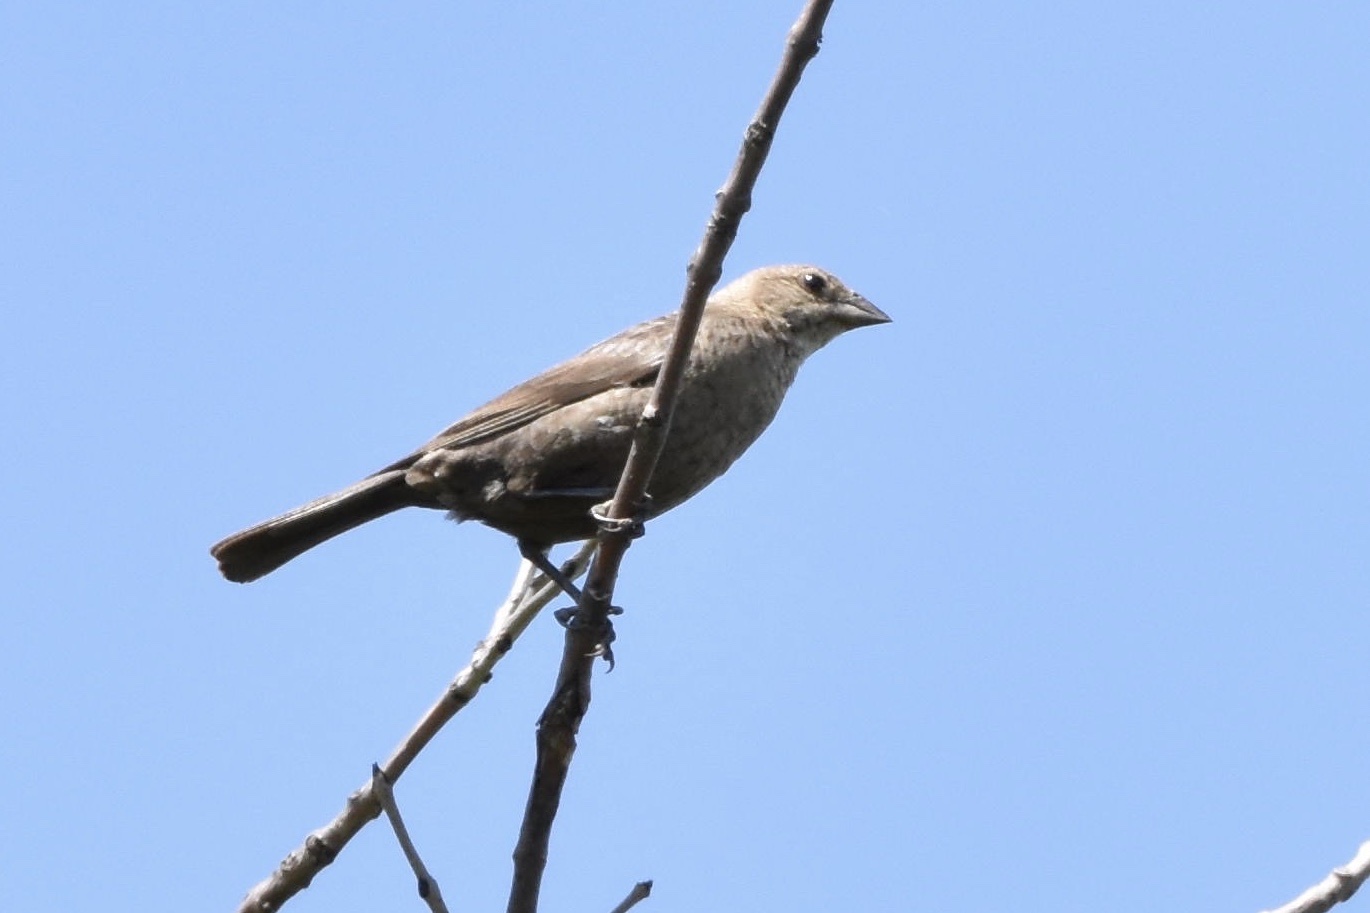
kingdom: Animalia
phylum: Chordata
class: Aves
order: Passeriformes
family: Icteridae
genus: Molothrus
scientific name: Molothrus ater
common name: Brown-headed cowbird
